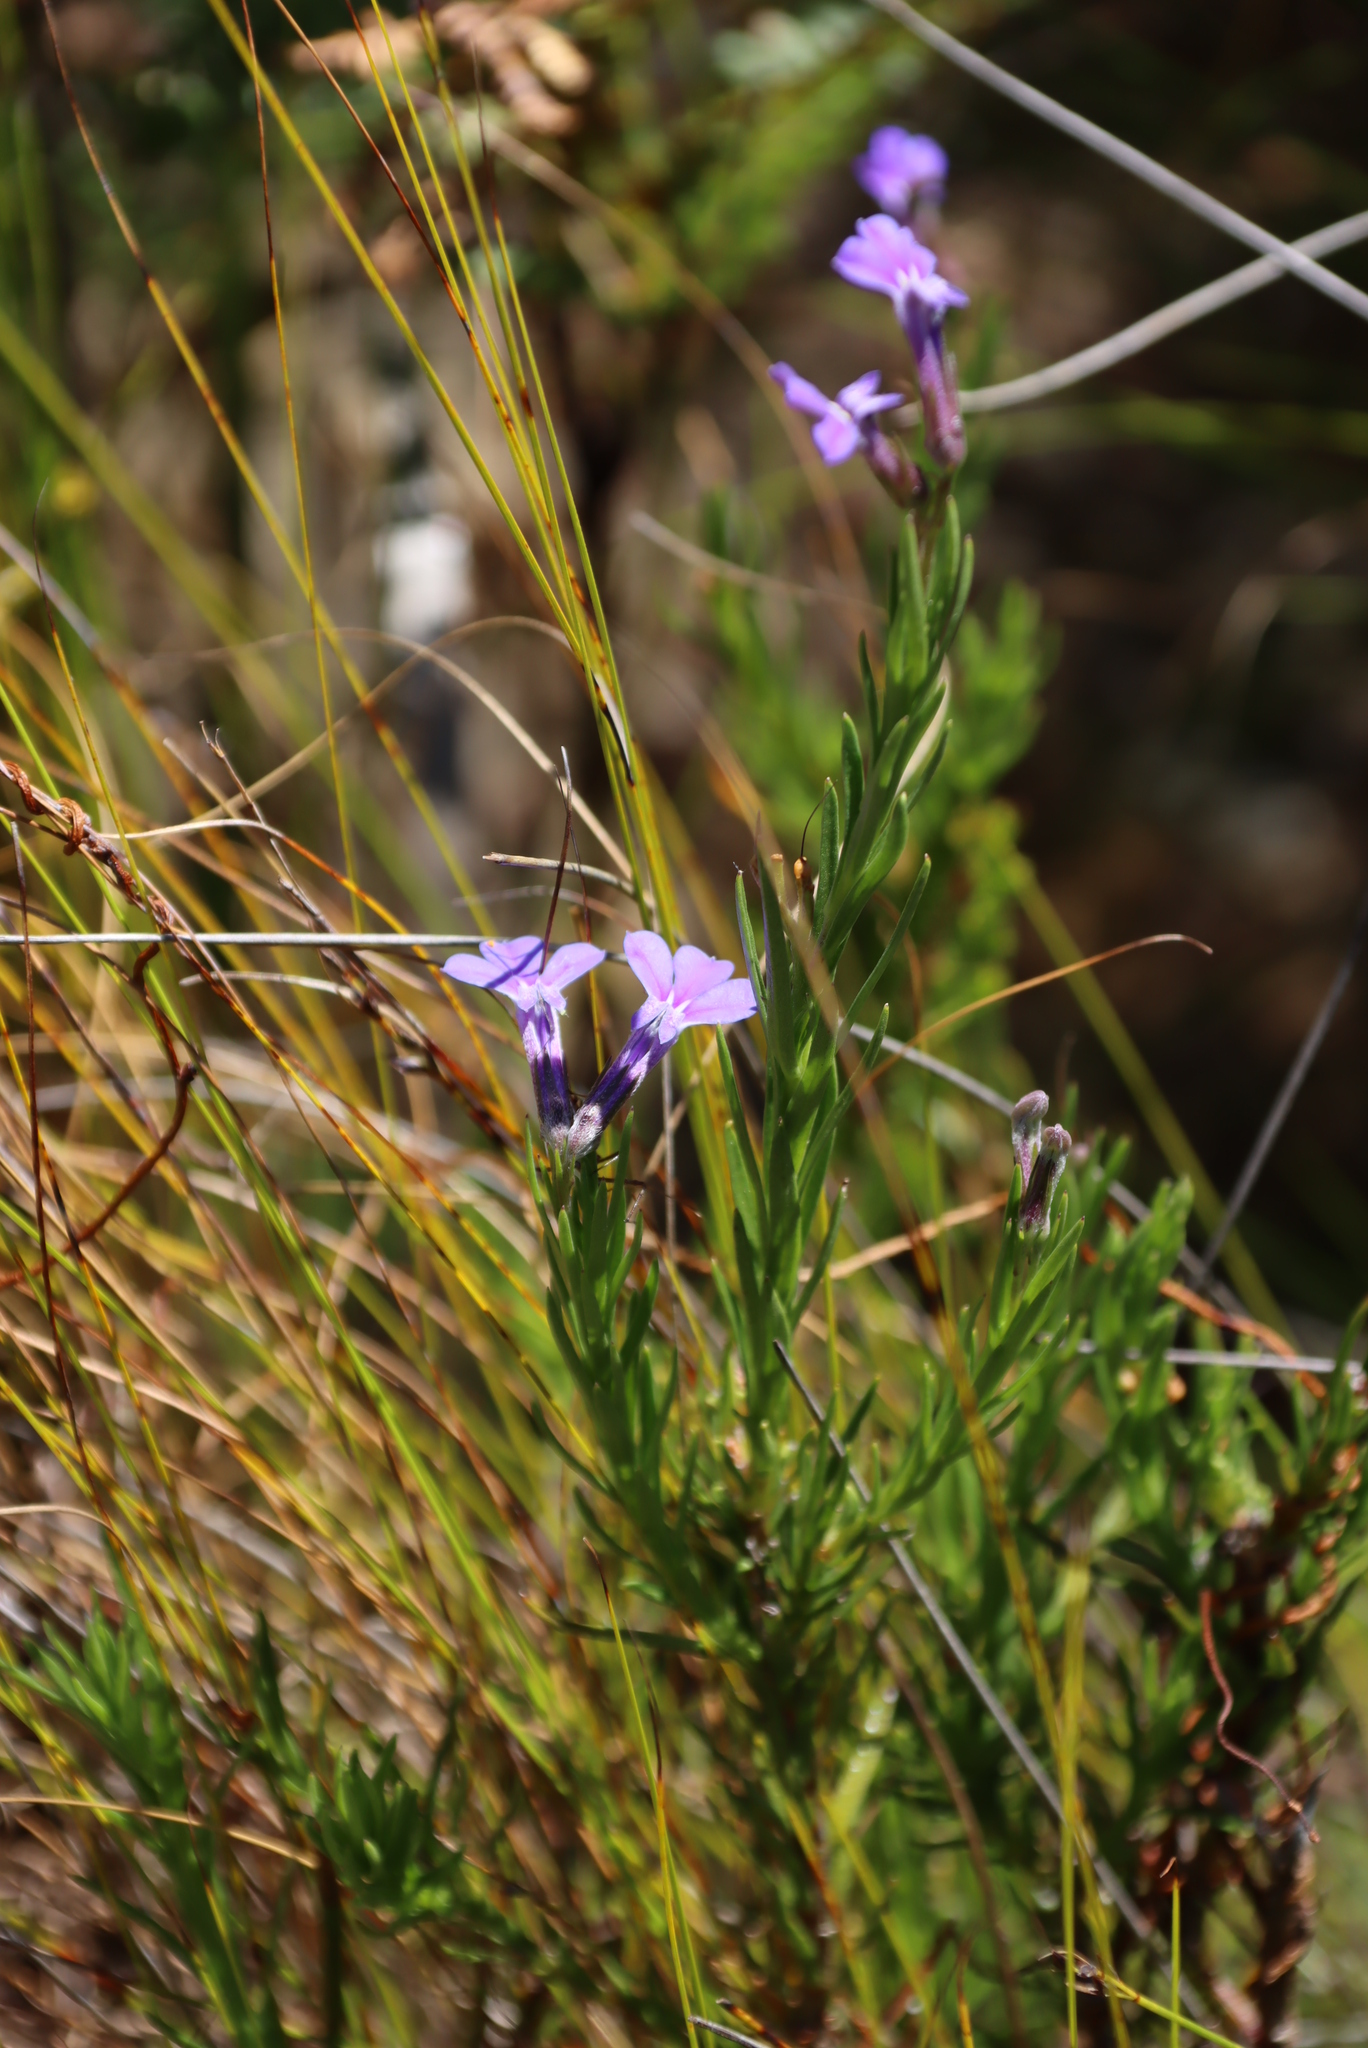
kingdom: Plantae
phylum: Tracheophyta
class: Magnoliopsida
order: Asterales
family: Campanulaceae
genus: Lobelia
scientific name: Lobelia pinifolia
